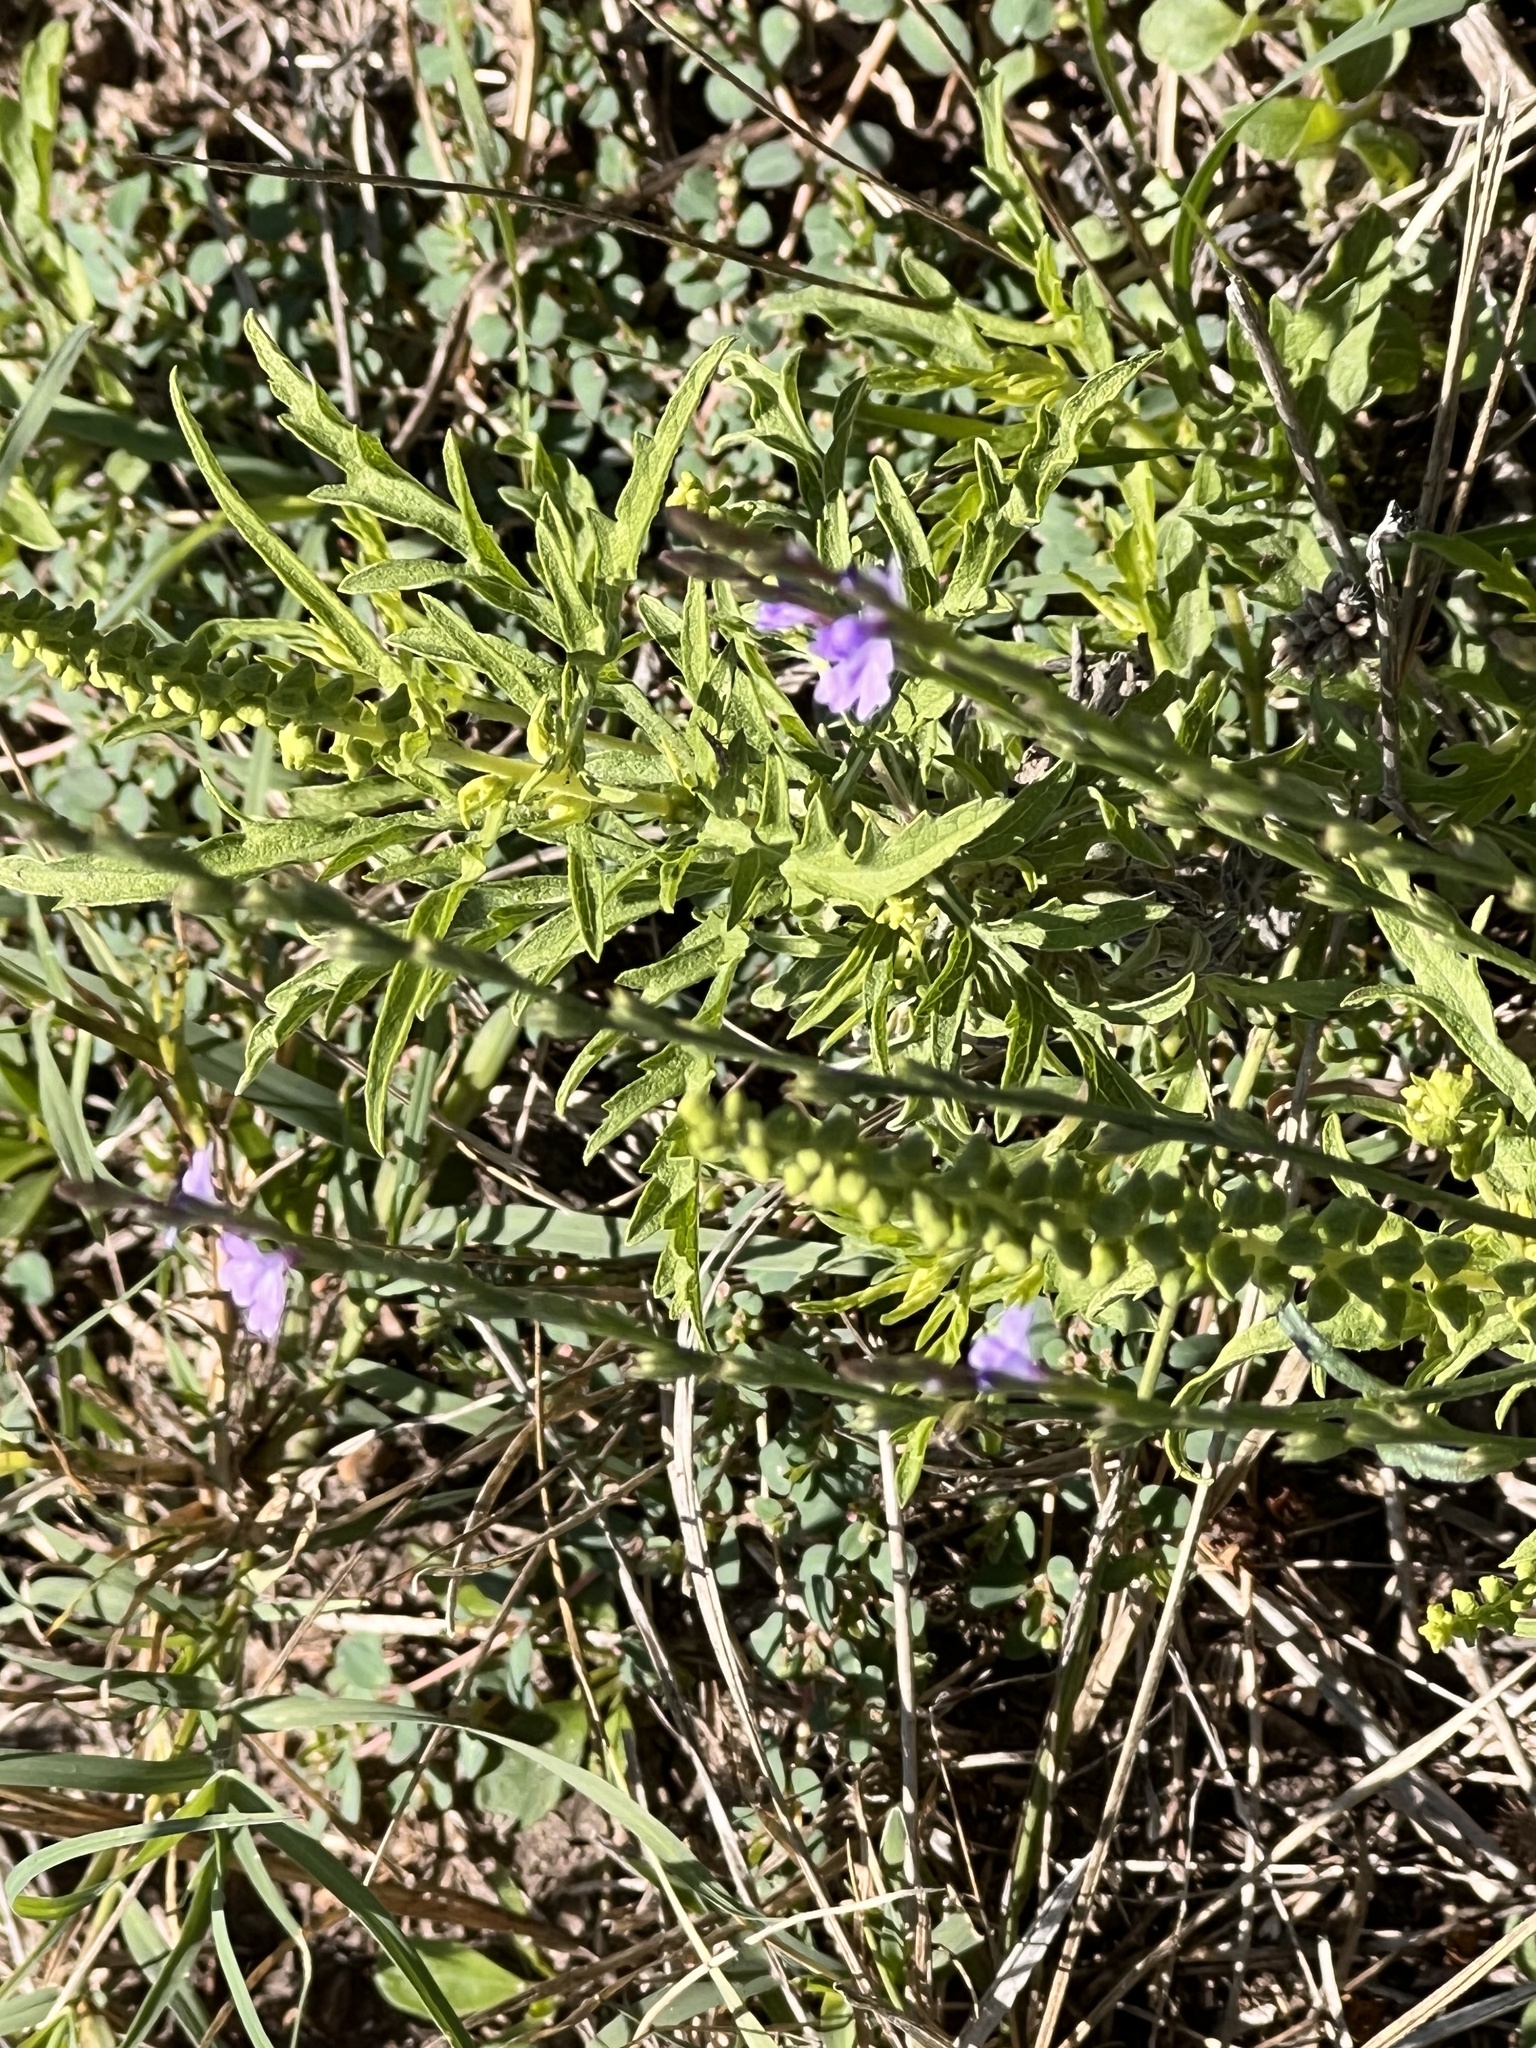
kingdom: Plantae
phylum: Tracheophyta
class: Magnoliopsida
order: Lamiales
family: Verbenaceae
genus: Verbena
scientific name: Verbena halei
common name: Texas vervain
